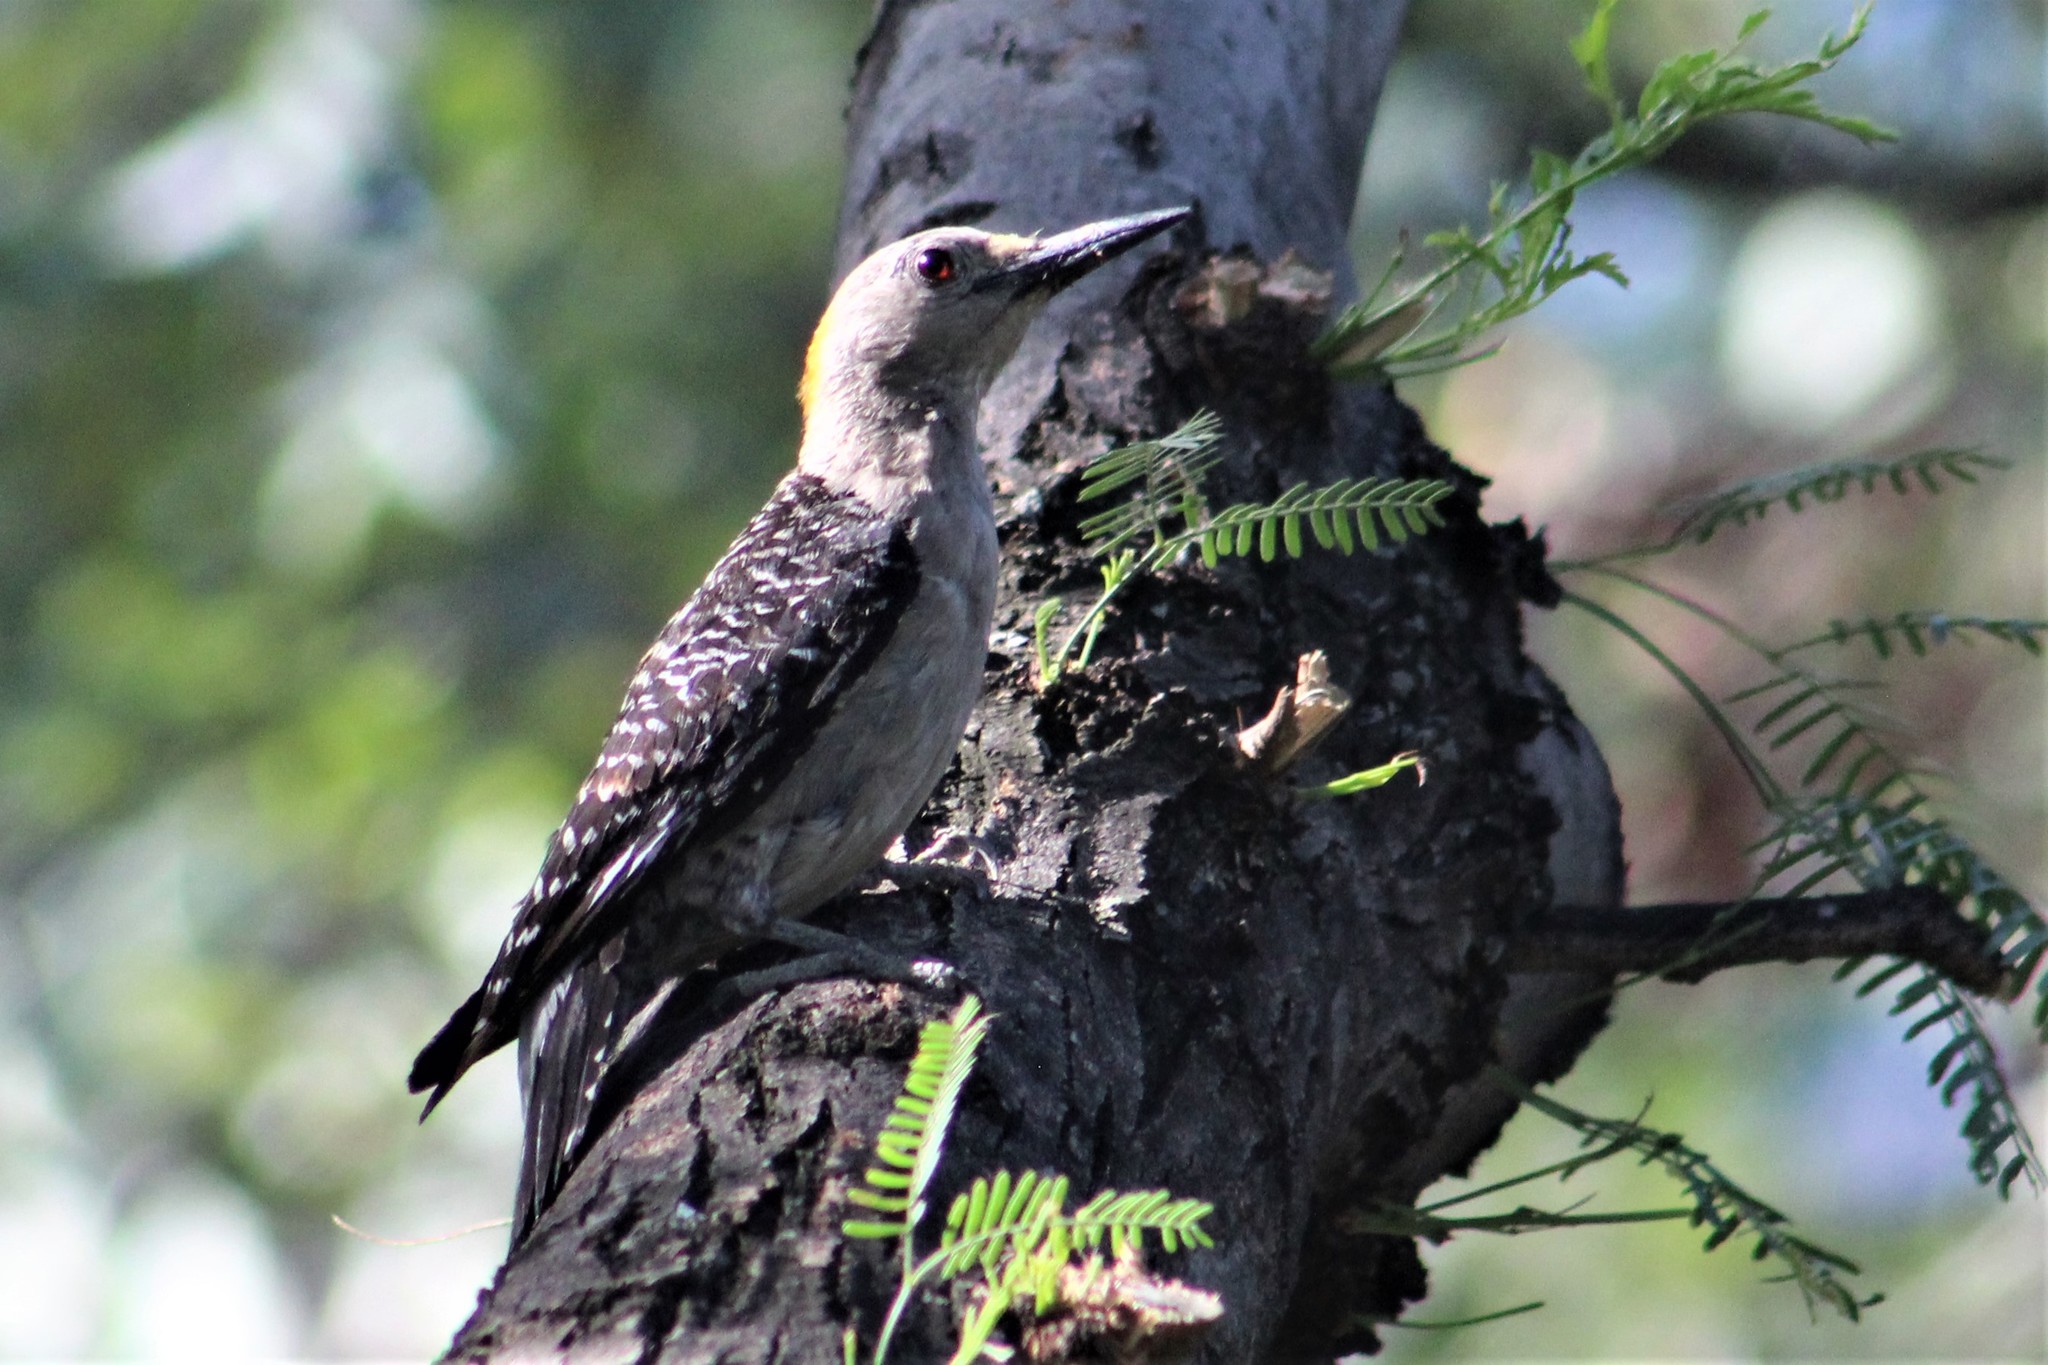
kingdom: Animalia
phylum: Chordata
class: Aves
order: Piciformes
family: Picidae
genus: Melanerpes
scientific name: Melanerpes aurifrons
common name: Golden-fronted woodpecker
